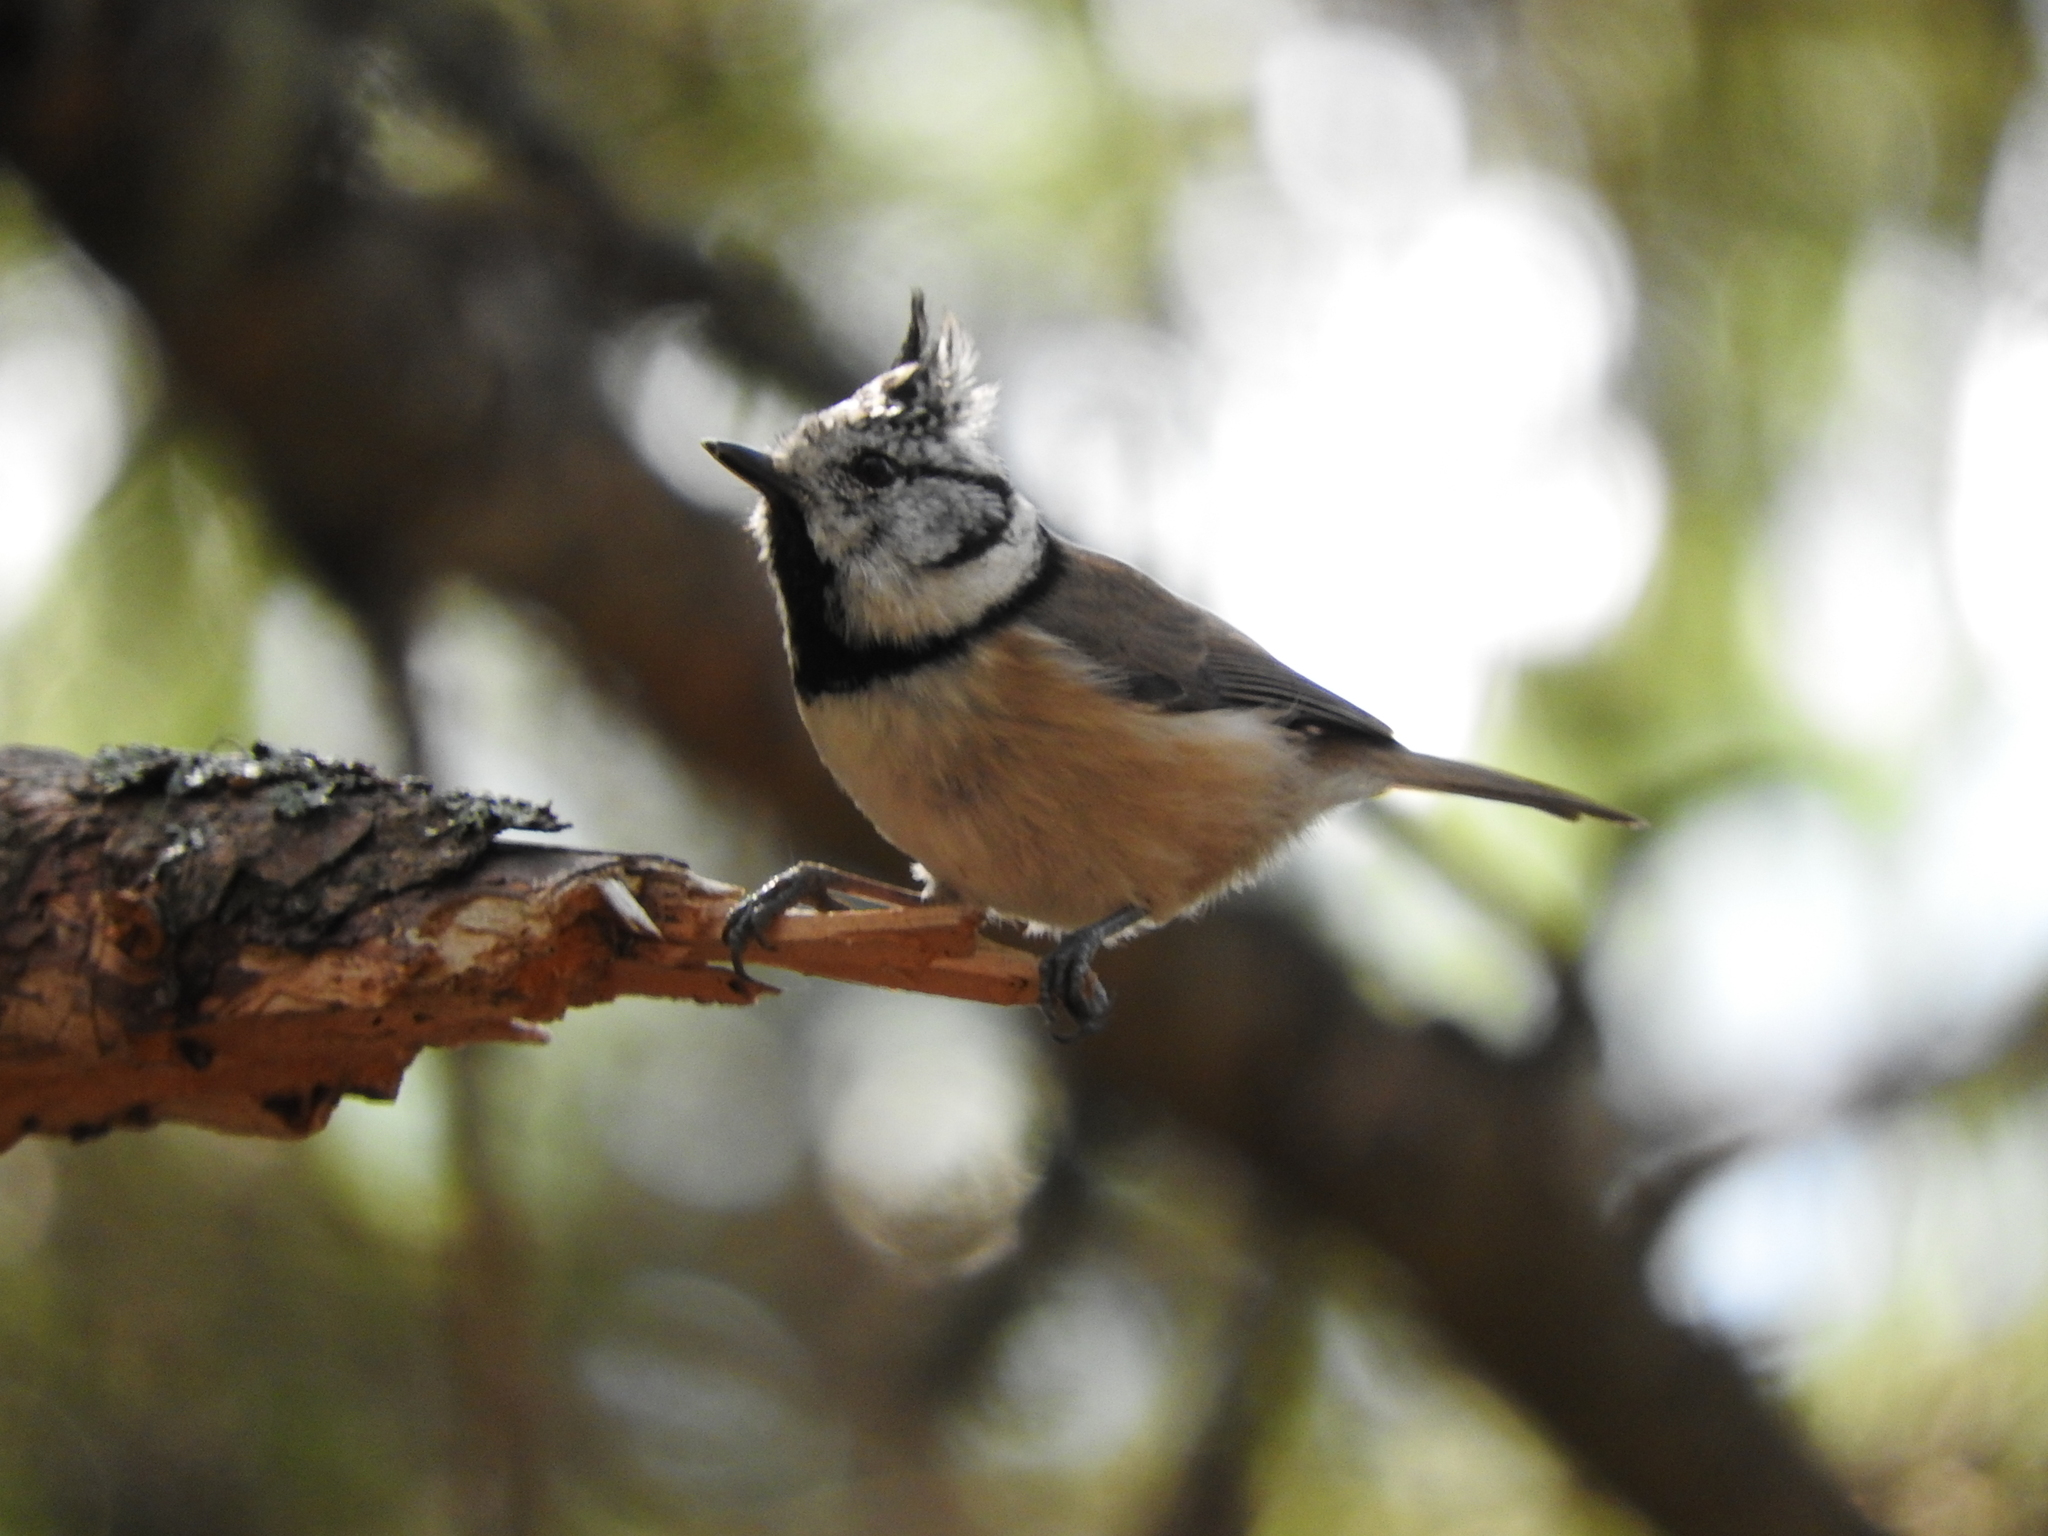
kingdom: Animalia
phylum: Chordata
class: Aves
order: Passeriformes
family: Paridae
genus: Lophophanes
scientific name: Lophophanes cristatus
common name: European crested tit
